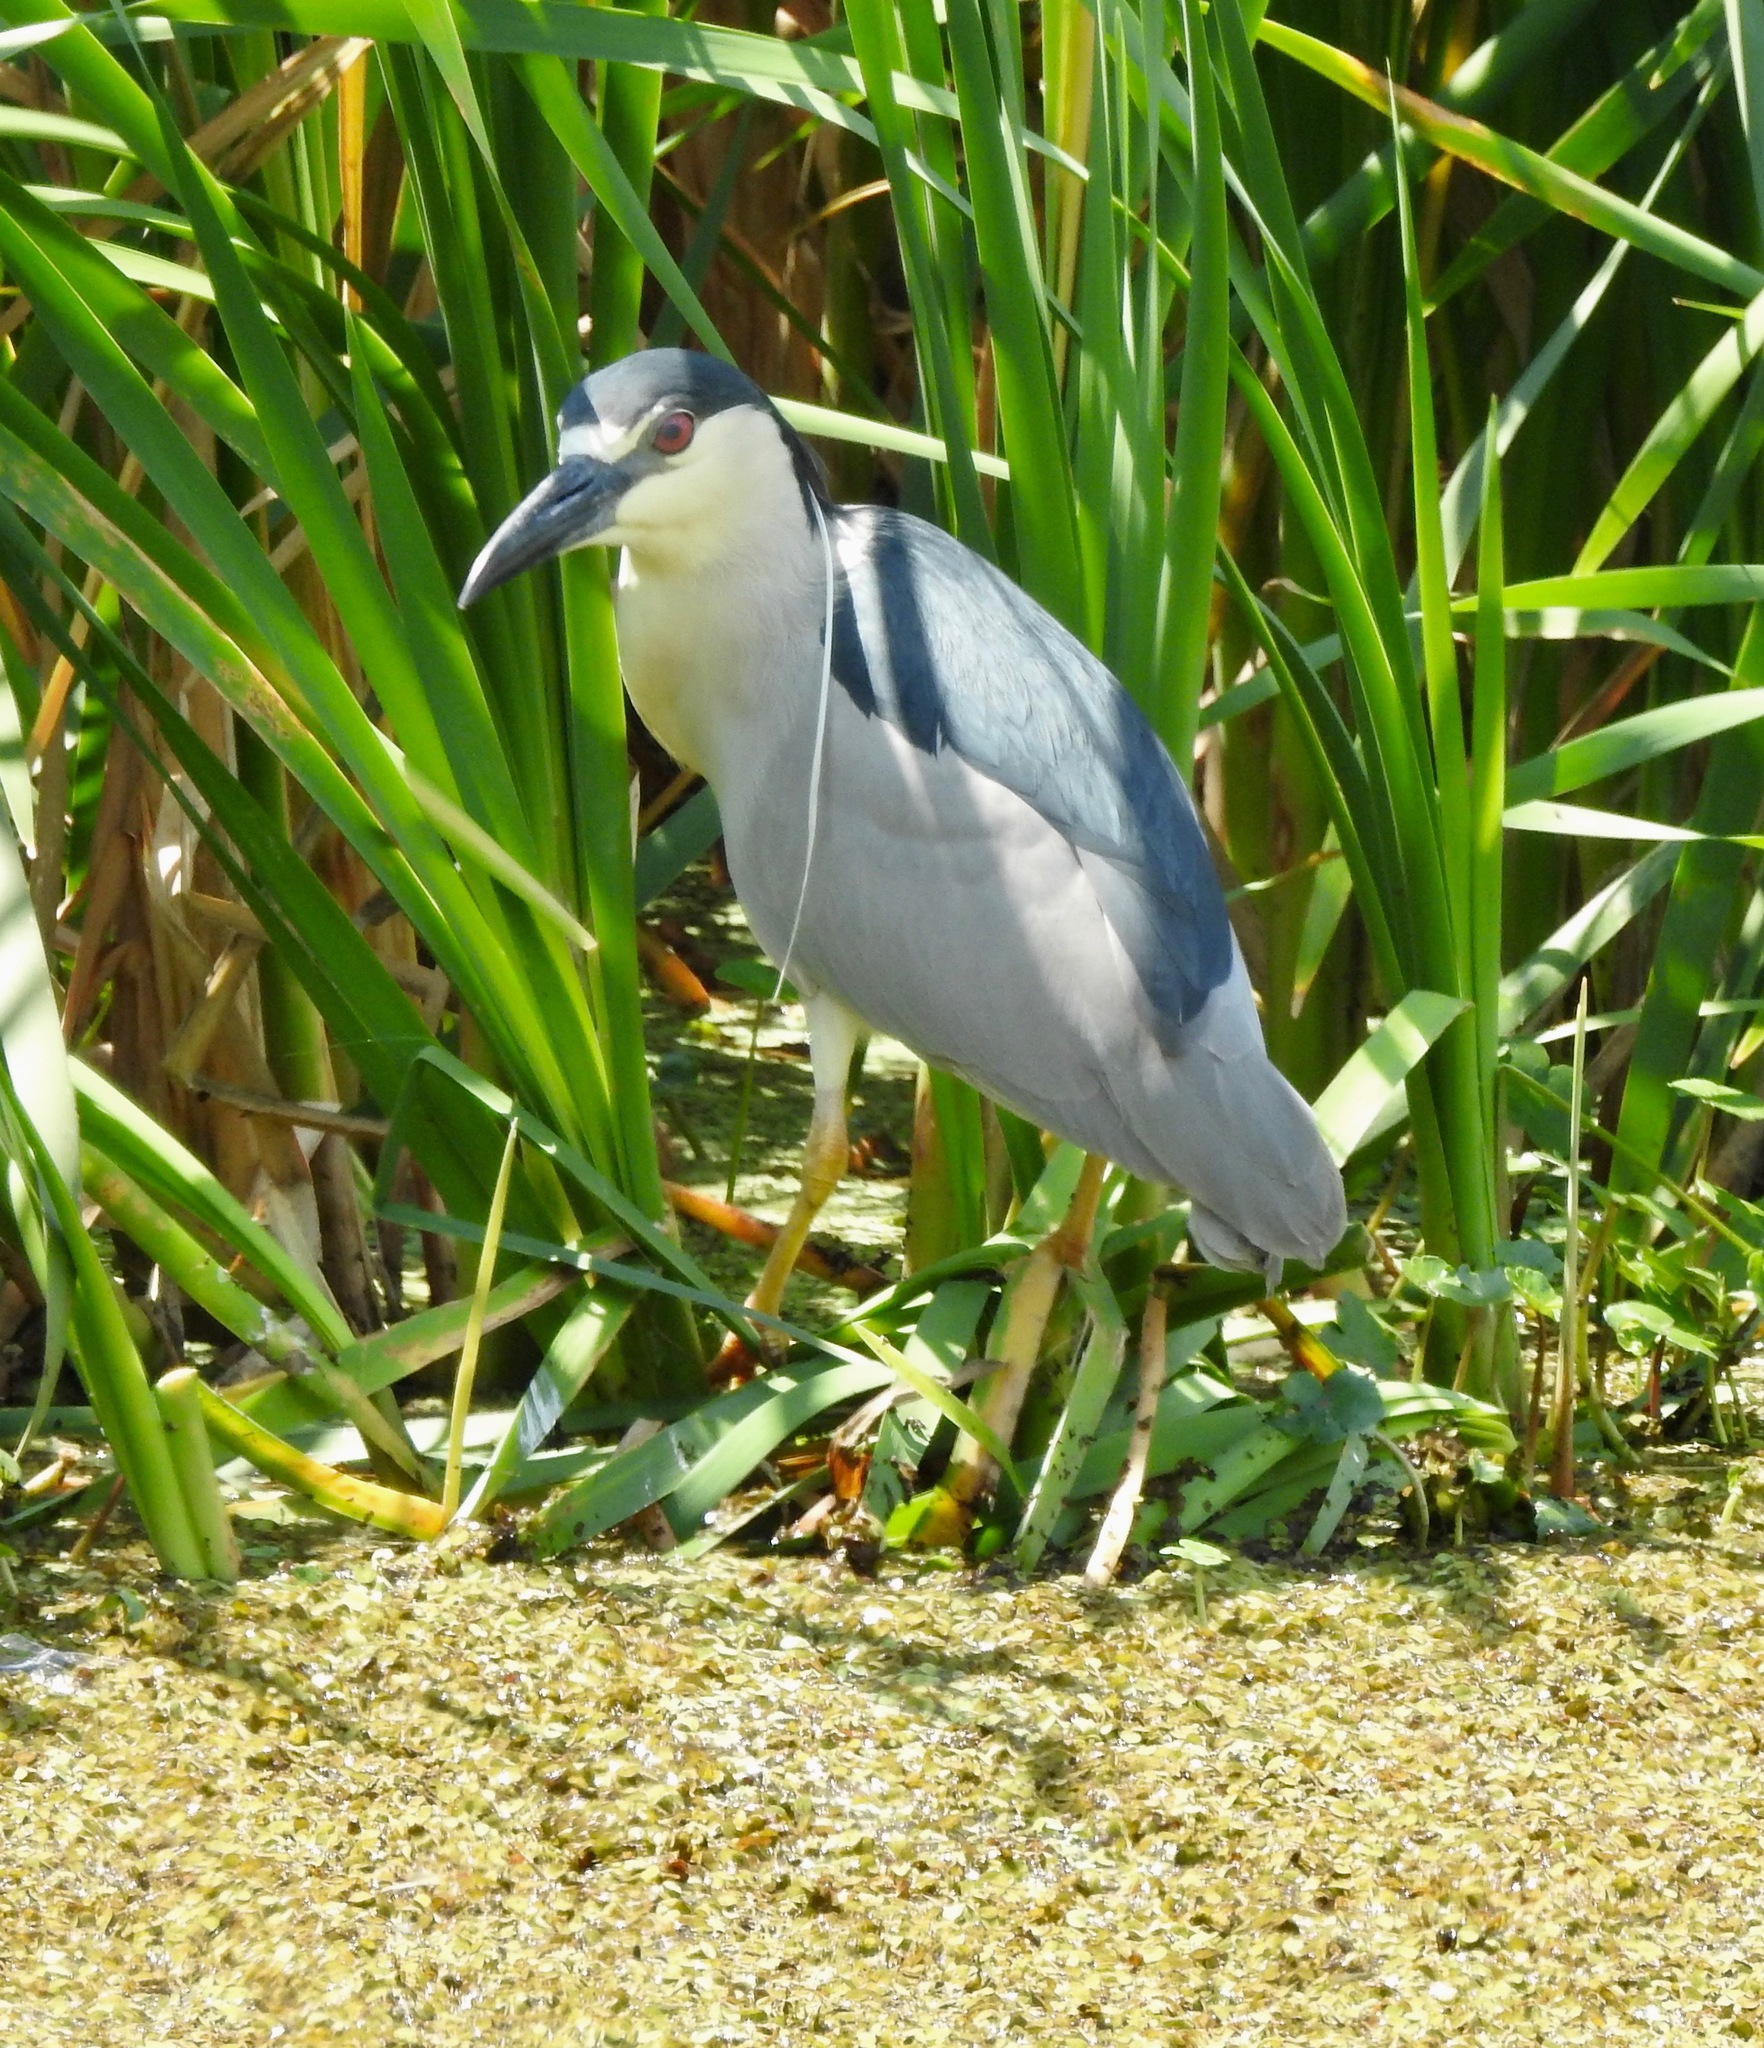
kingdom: Animalia
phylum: Chordata
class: Aves
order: Pelecaniformes
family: Ardeidae
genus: Nycticorax
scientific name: Nycticorax nycticorax
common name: Black-crowned night heron
